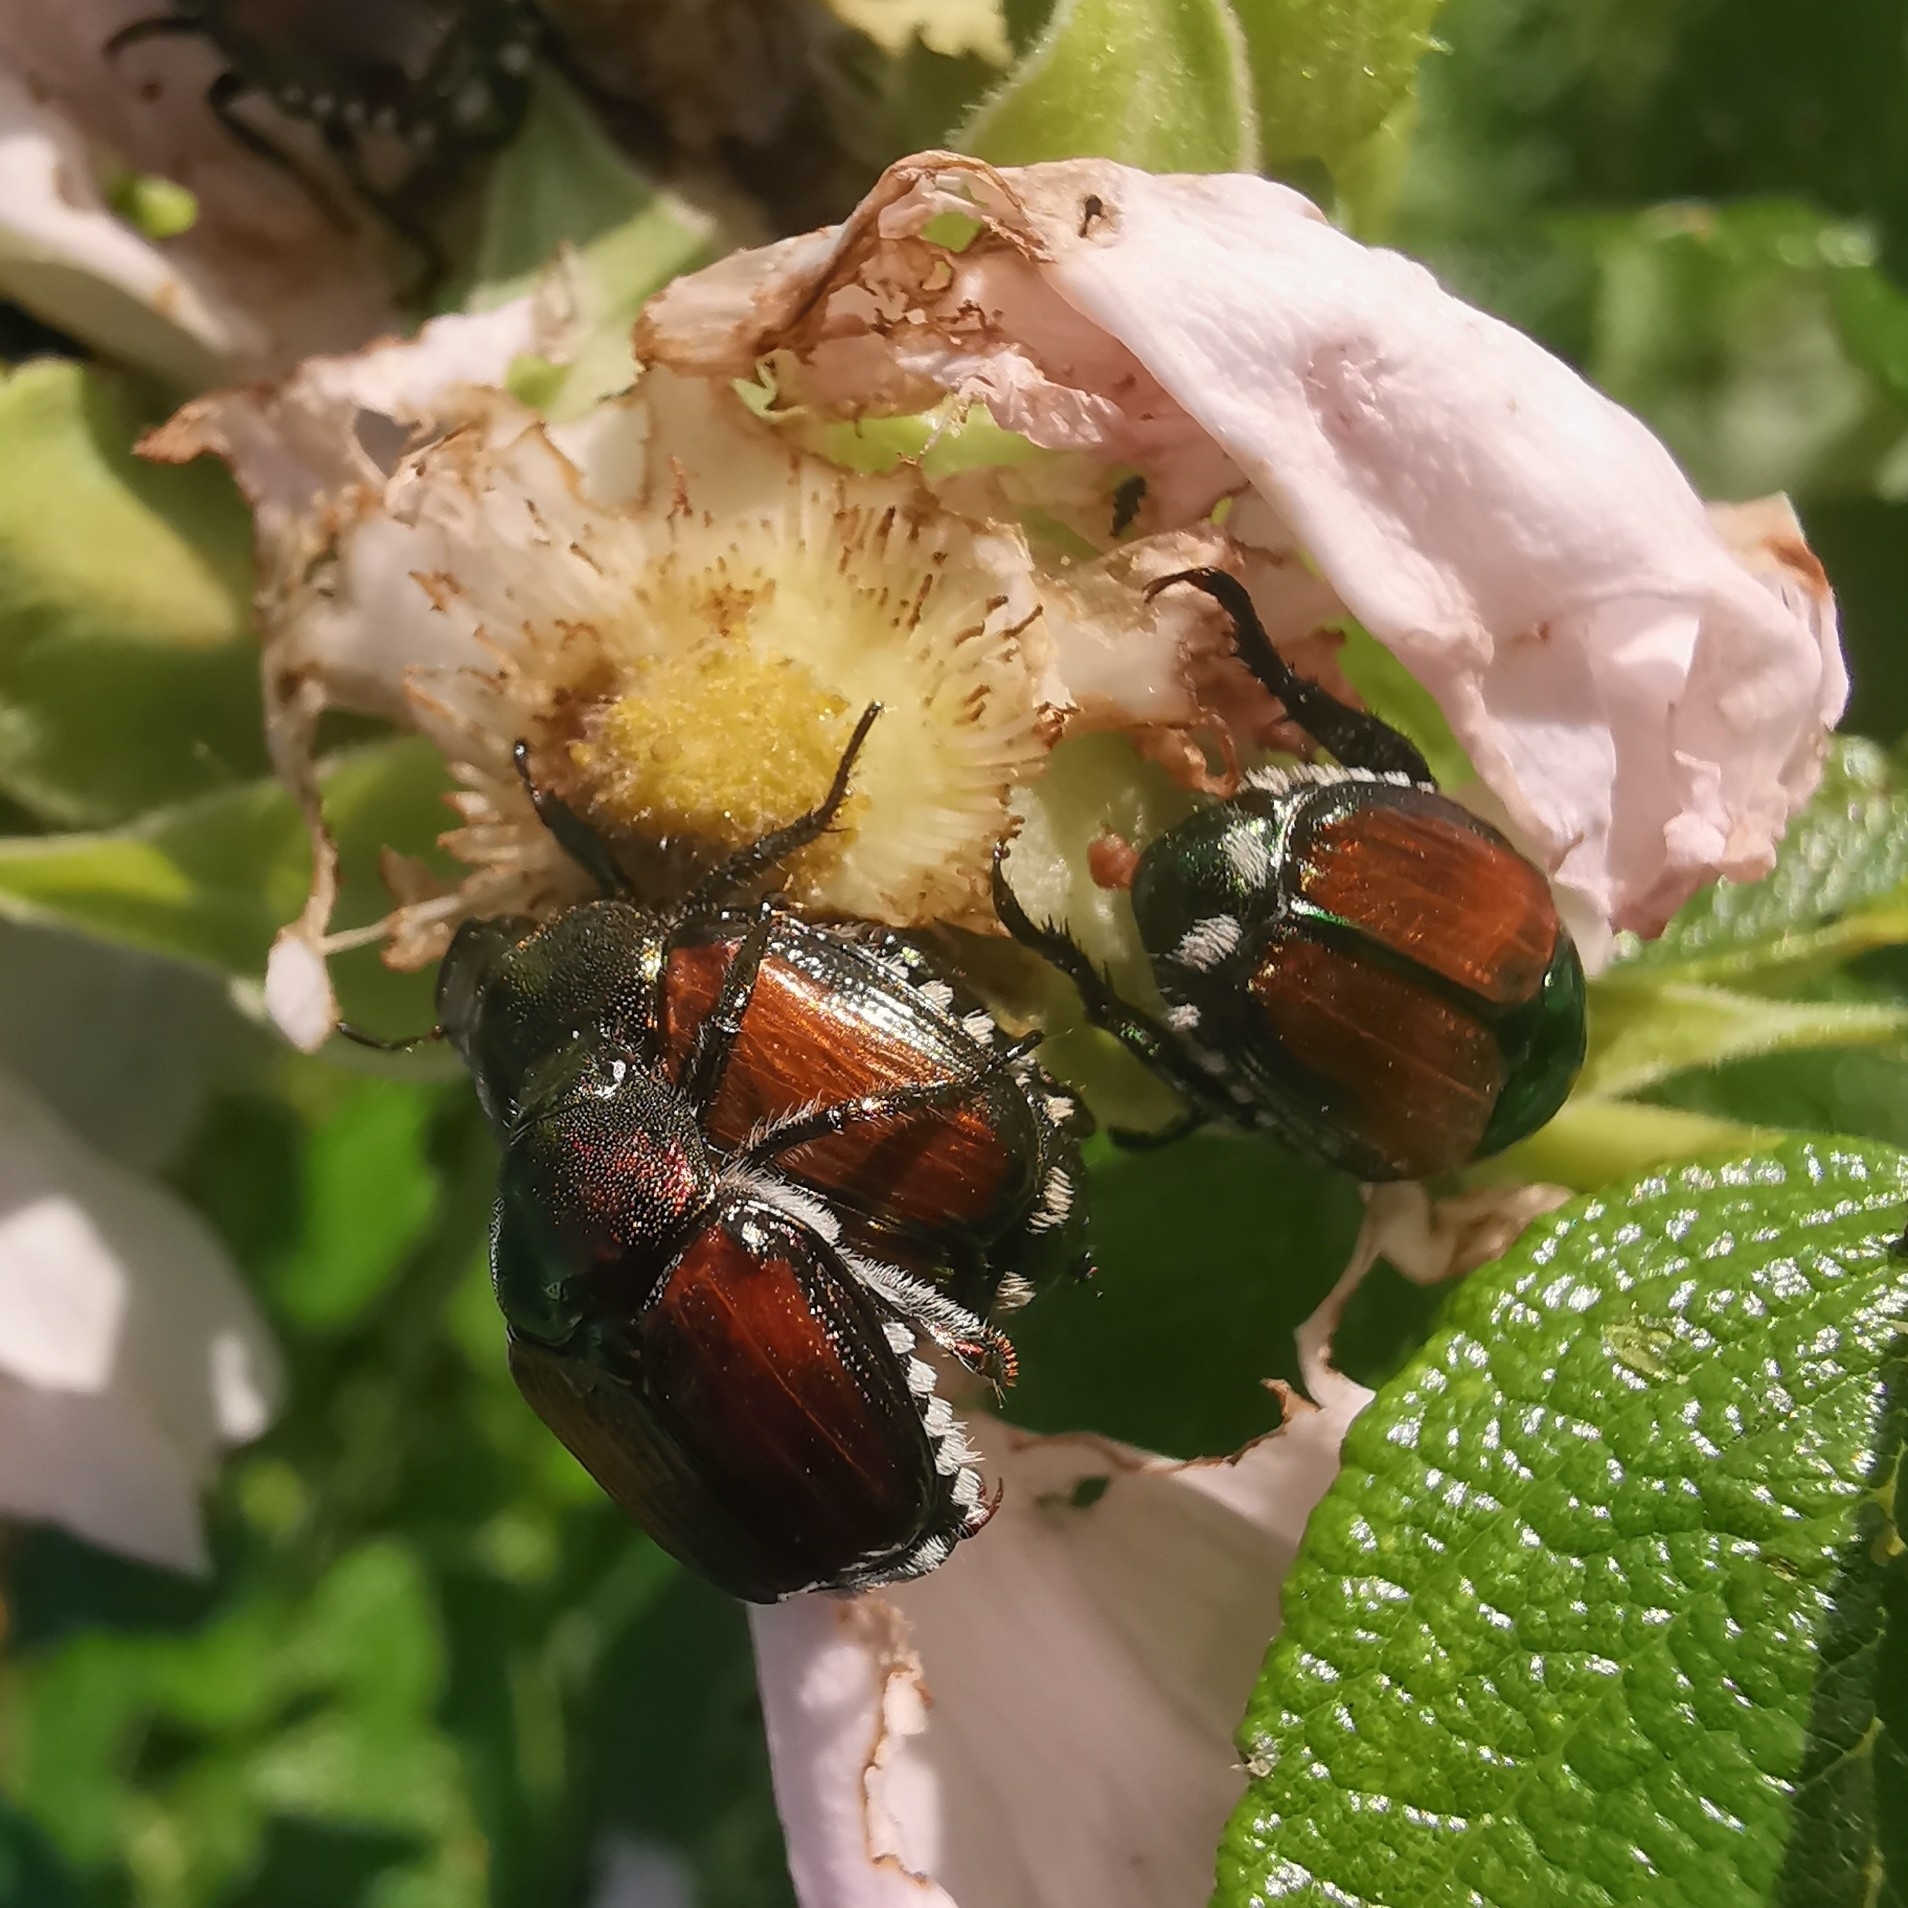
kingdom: Animalia
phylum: Arthropoda
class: Insecta
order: Coleoptera
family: Scarabaeidae
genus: Popillia
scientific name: Popillia japonica
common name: Japanese beetle
